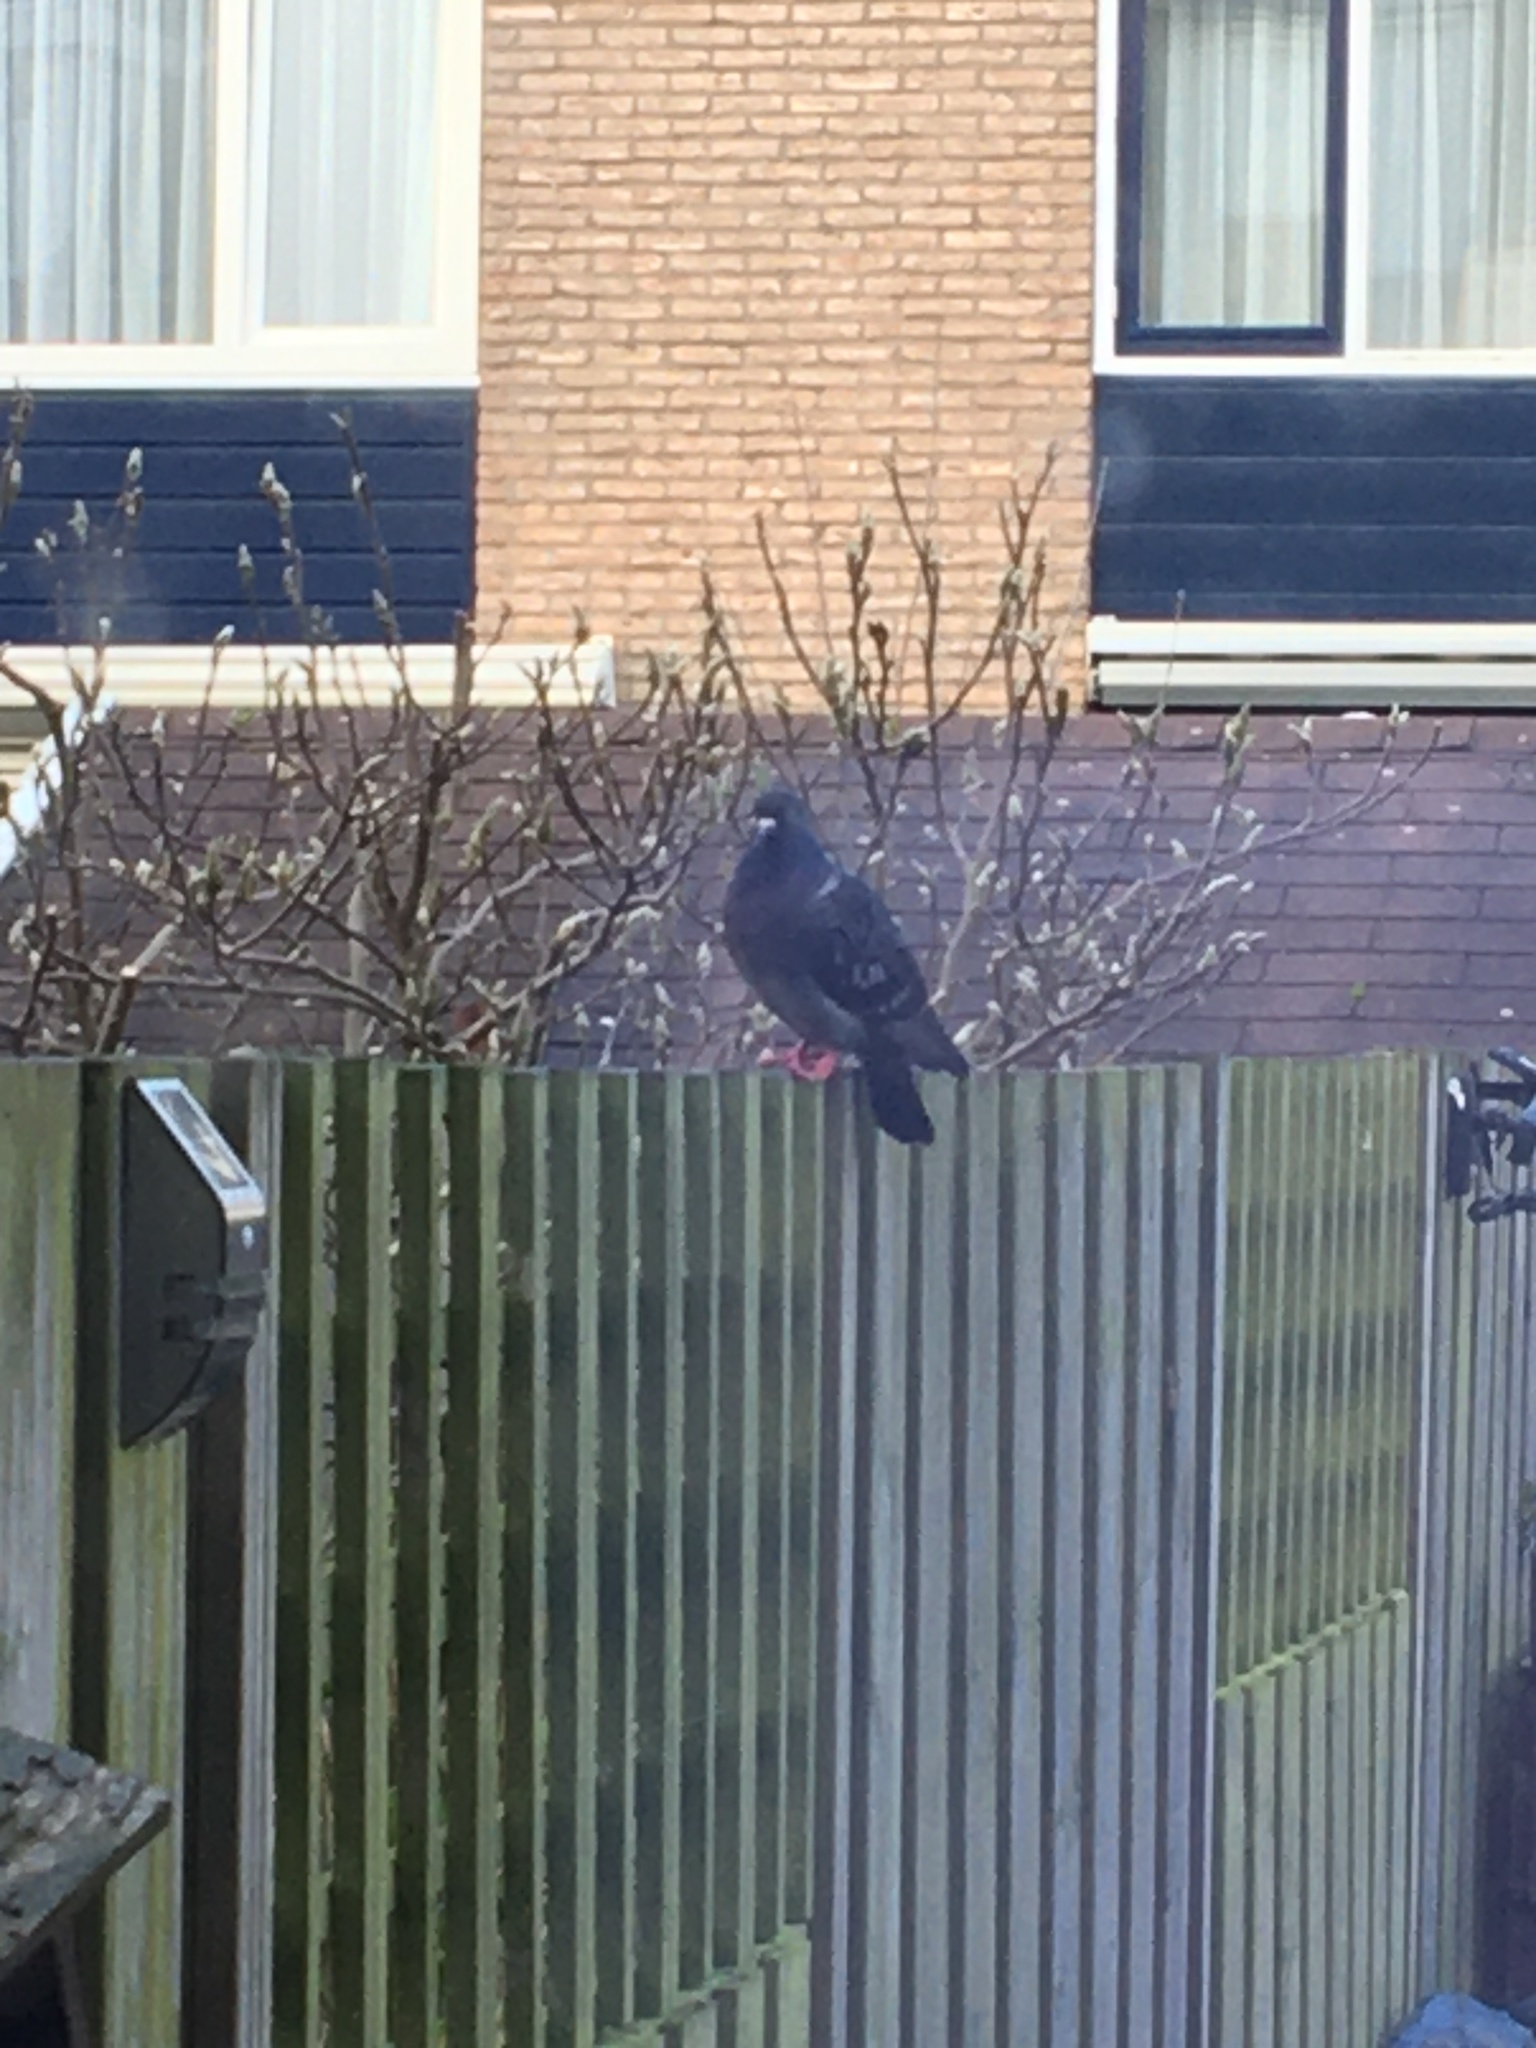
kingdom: Animalia
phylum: Chordata
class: Aves
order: Columbiformes
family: Columbidae
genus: Columba
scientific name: Columba livia
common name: Rock pigeon
